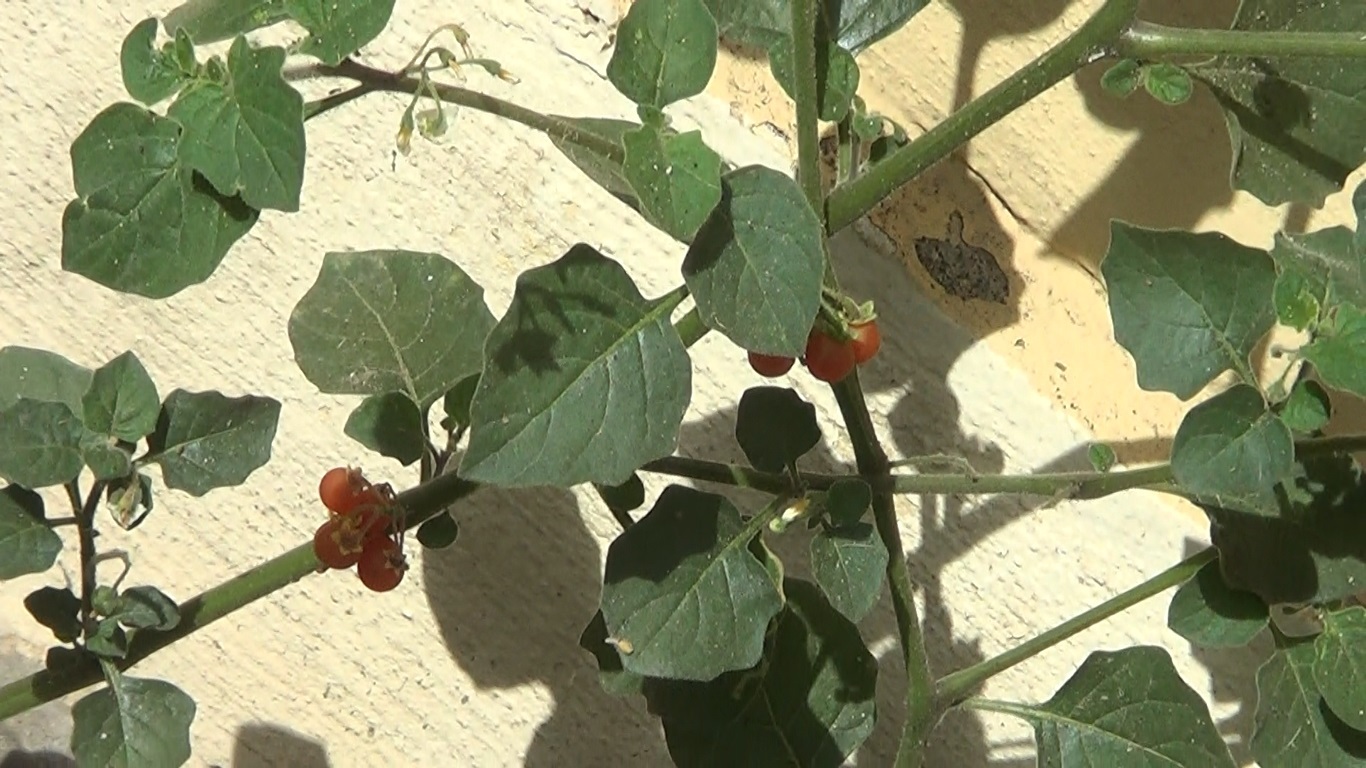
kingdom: Plantae
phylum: Tracheophyta
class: Magnoliopsida
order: Solanales
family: Solanaceae
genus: Solanum
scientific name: Solanum villosum
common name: Red nightshade
